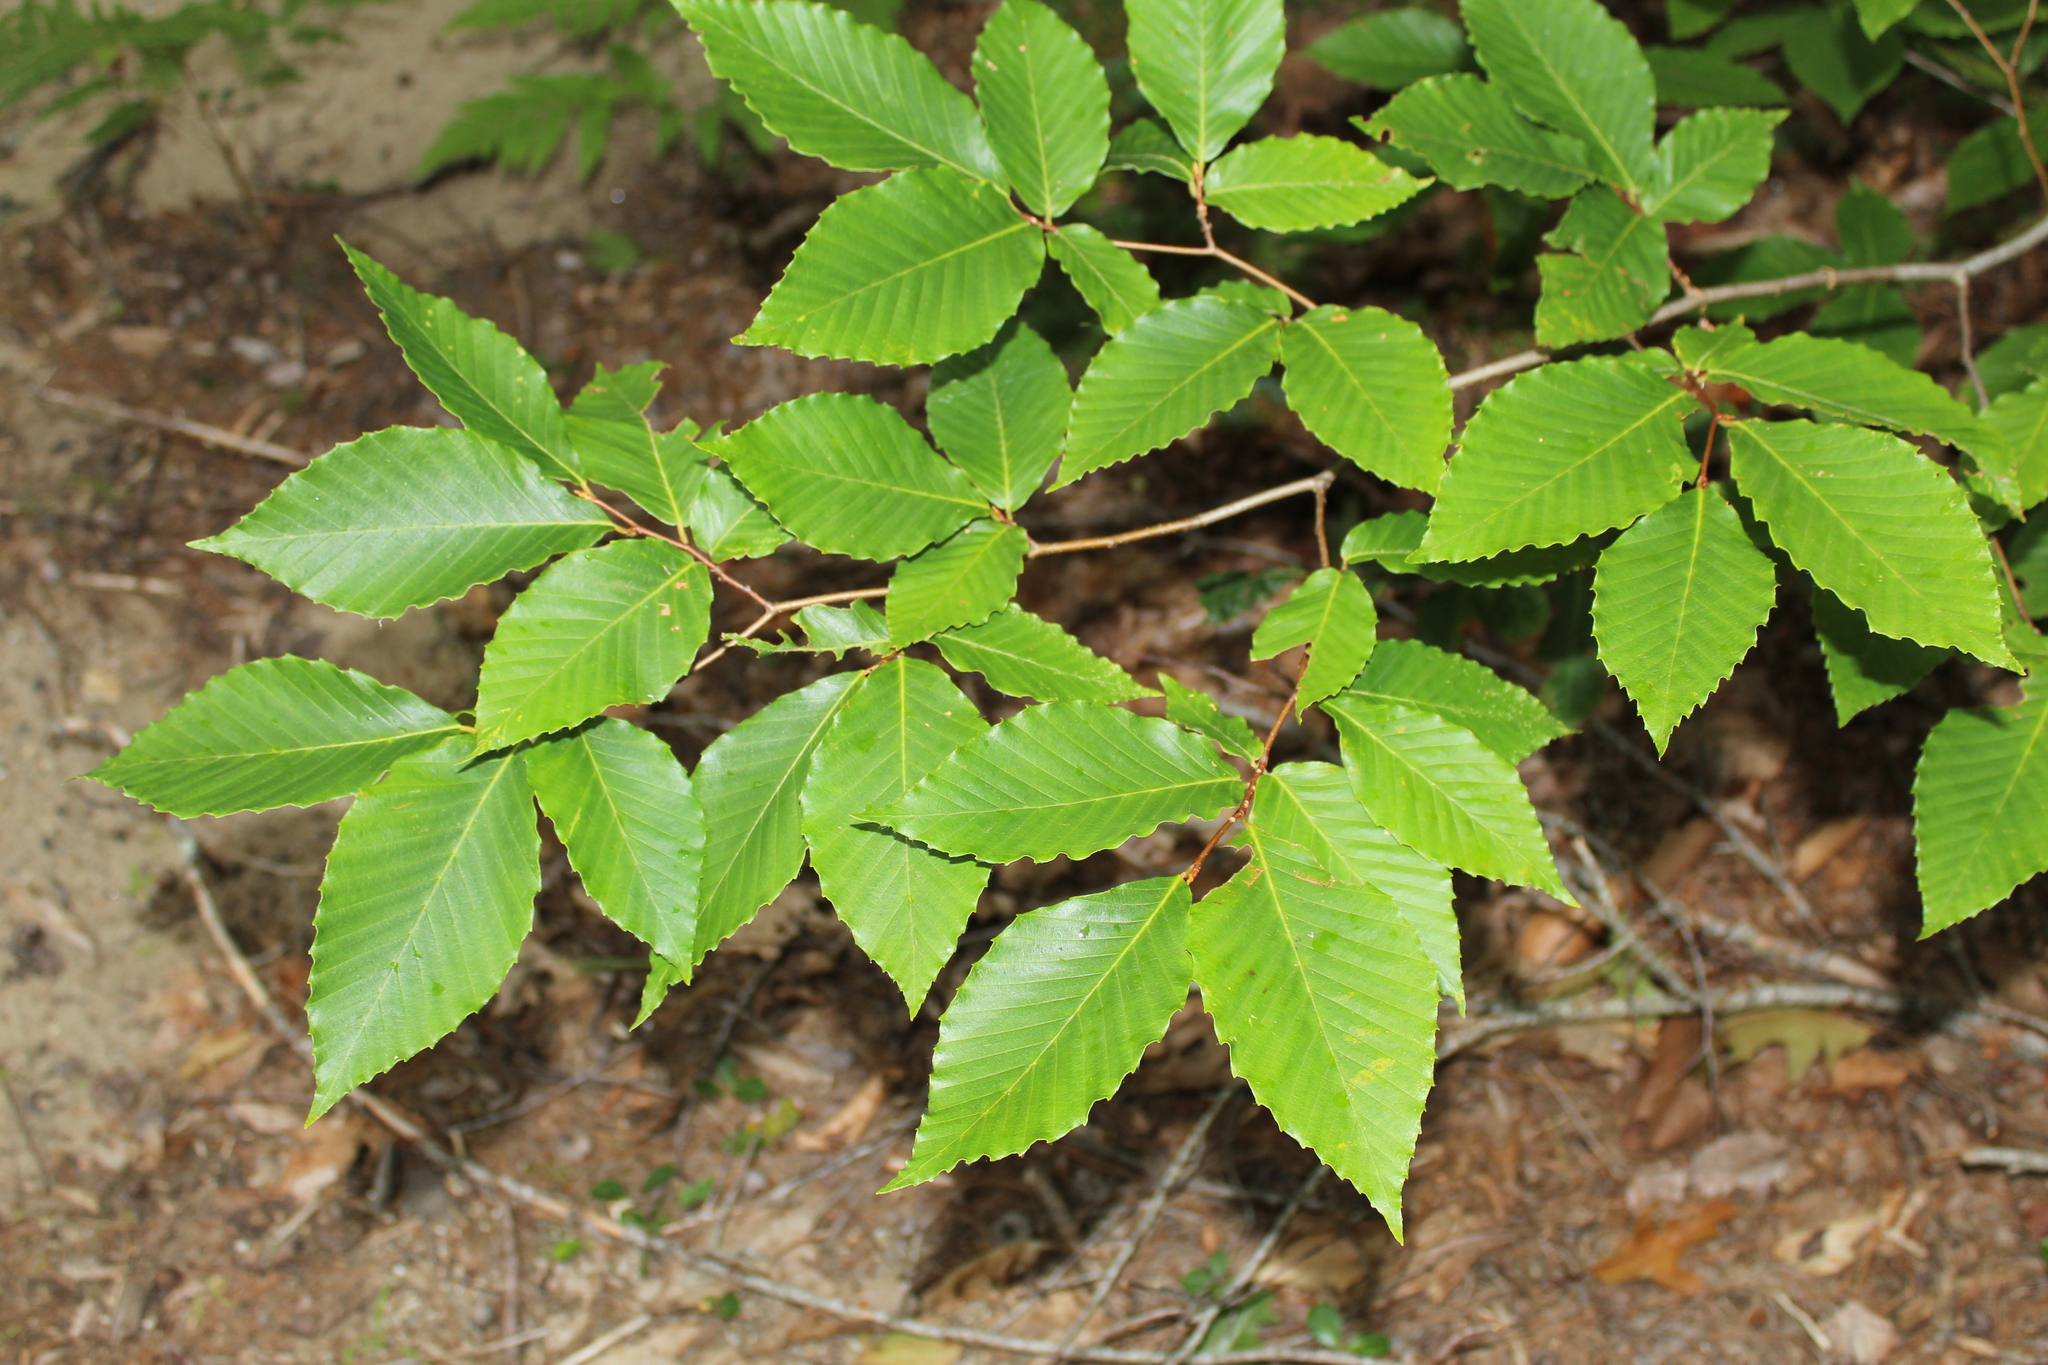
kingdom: Plantae
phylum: Tracheophyta
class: Magnoliopsida
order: Fagales
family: Fagaceae
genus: Fagus
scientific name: Fagus grandifolia
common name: American beech
